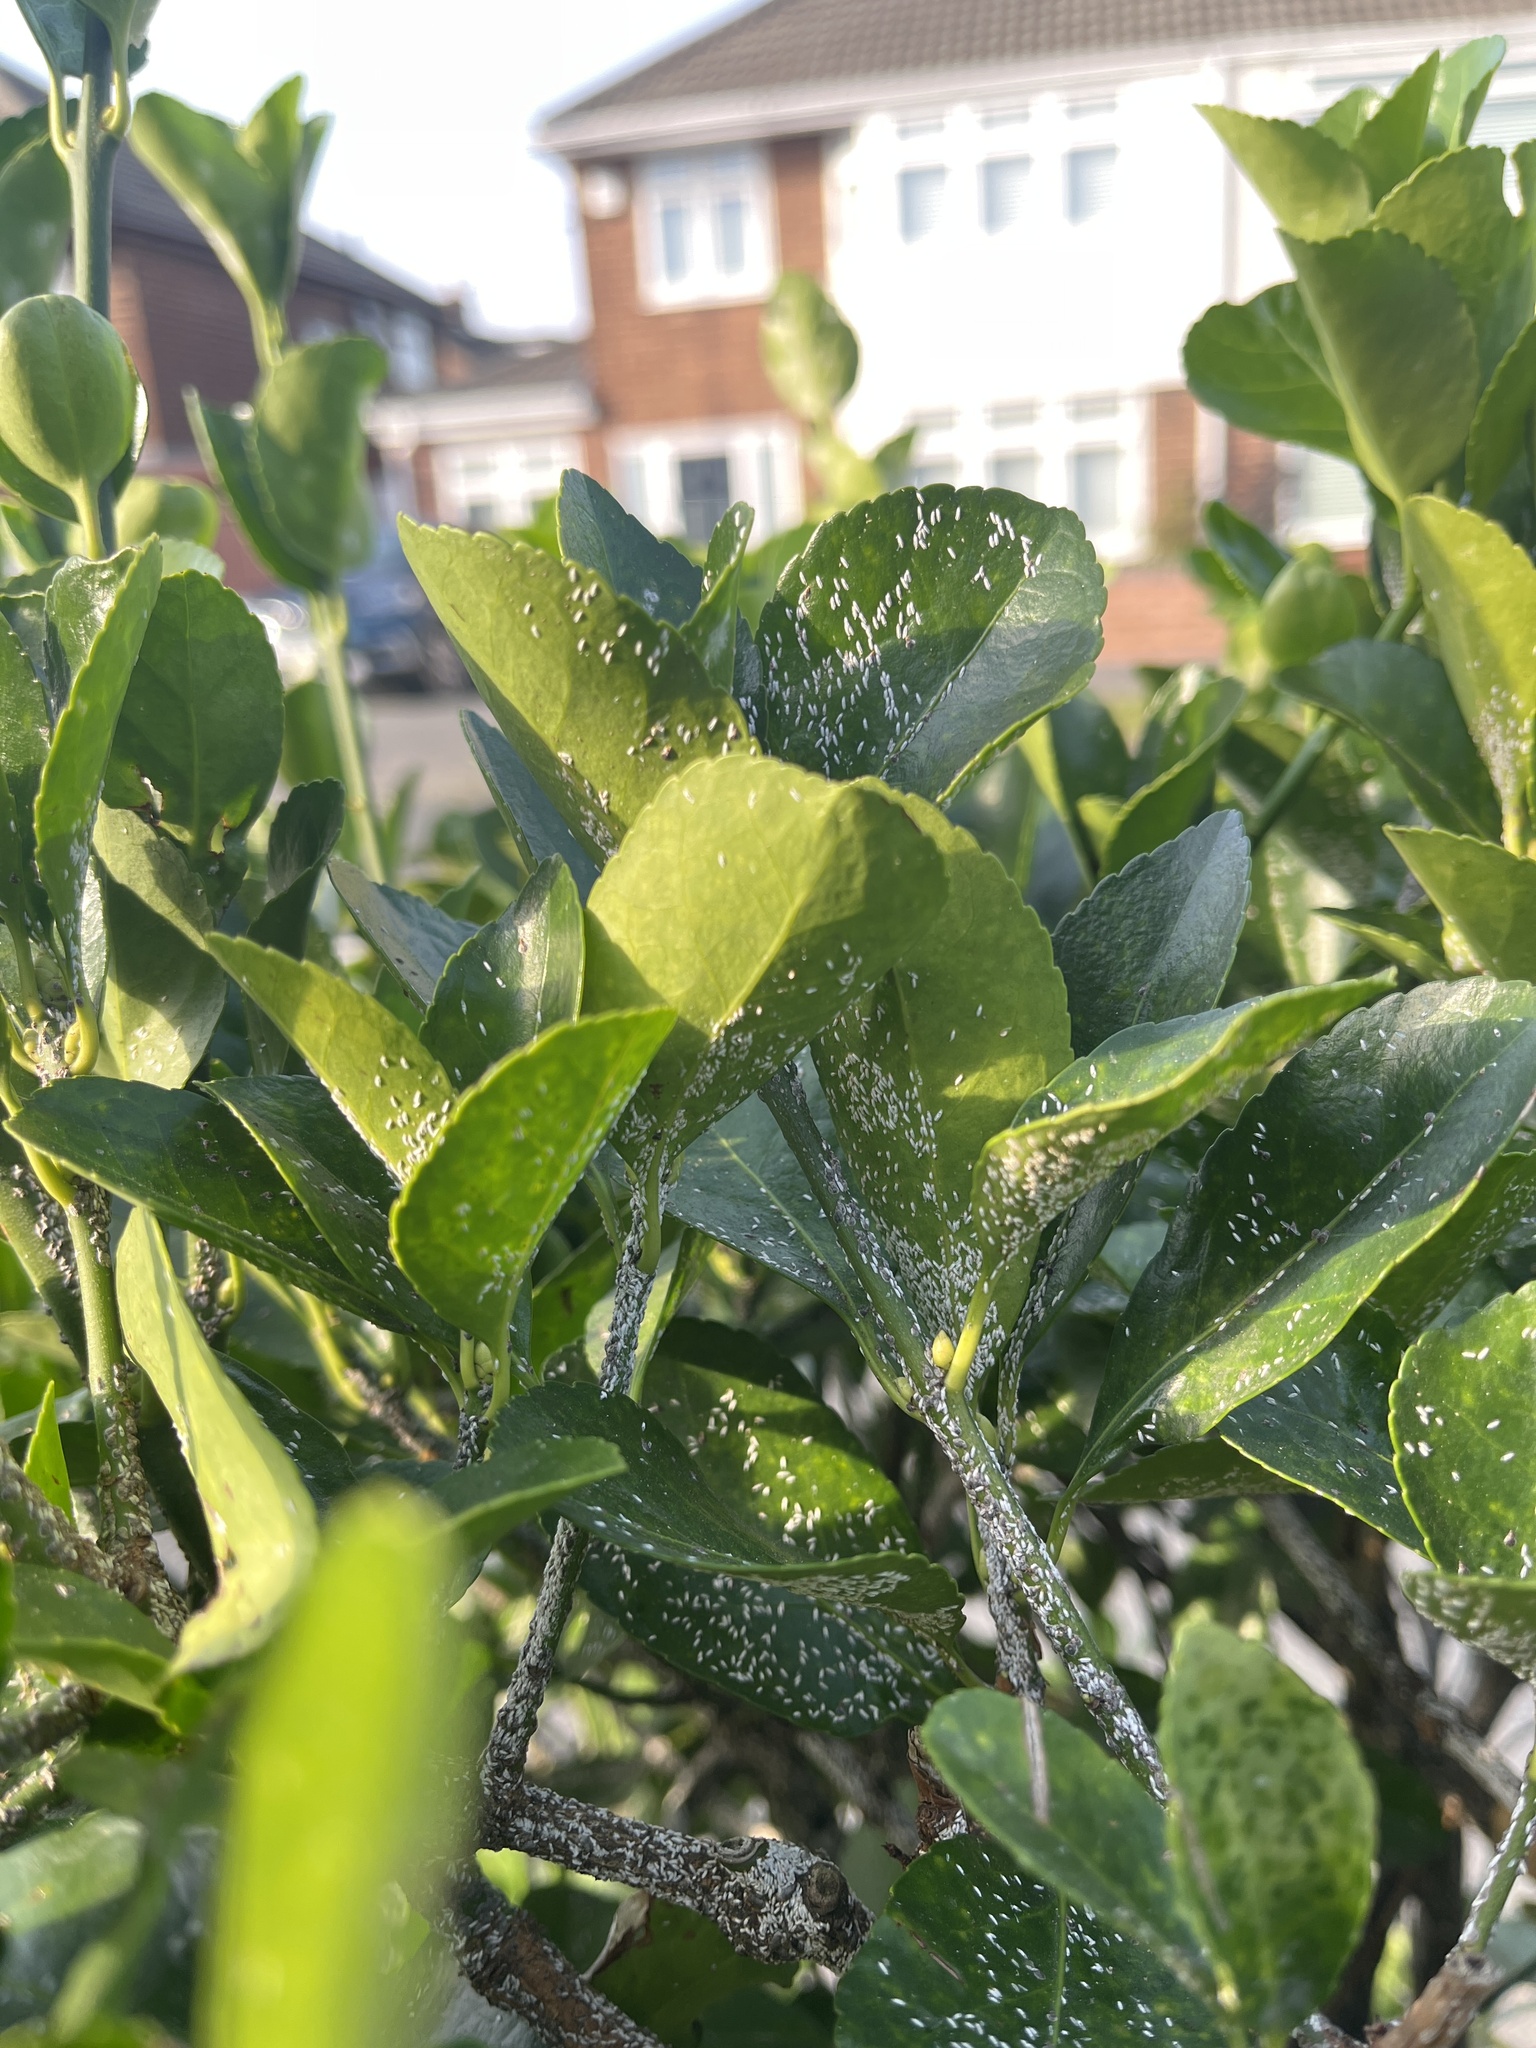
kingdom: Animalia
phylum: Arthropoda
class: Insecta
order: Hemiptera
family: Diaspididae
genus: Unaspis
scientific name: Unaspis euonymi
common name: Euonymus scale
